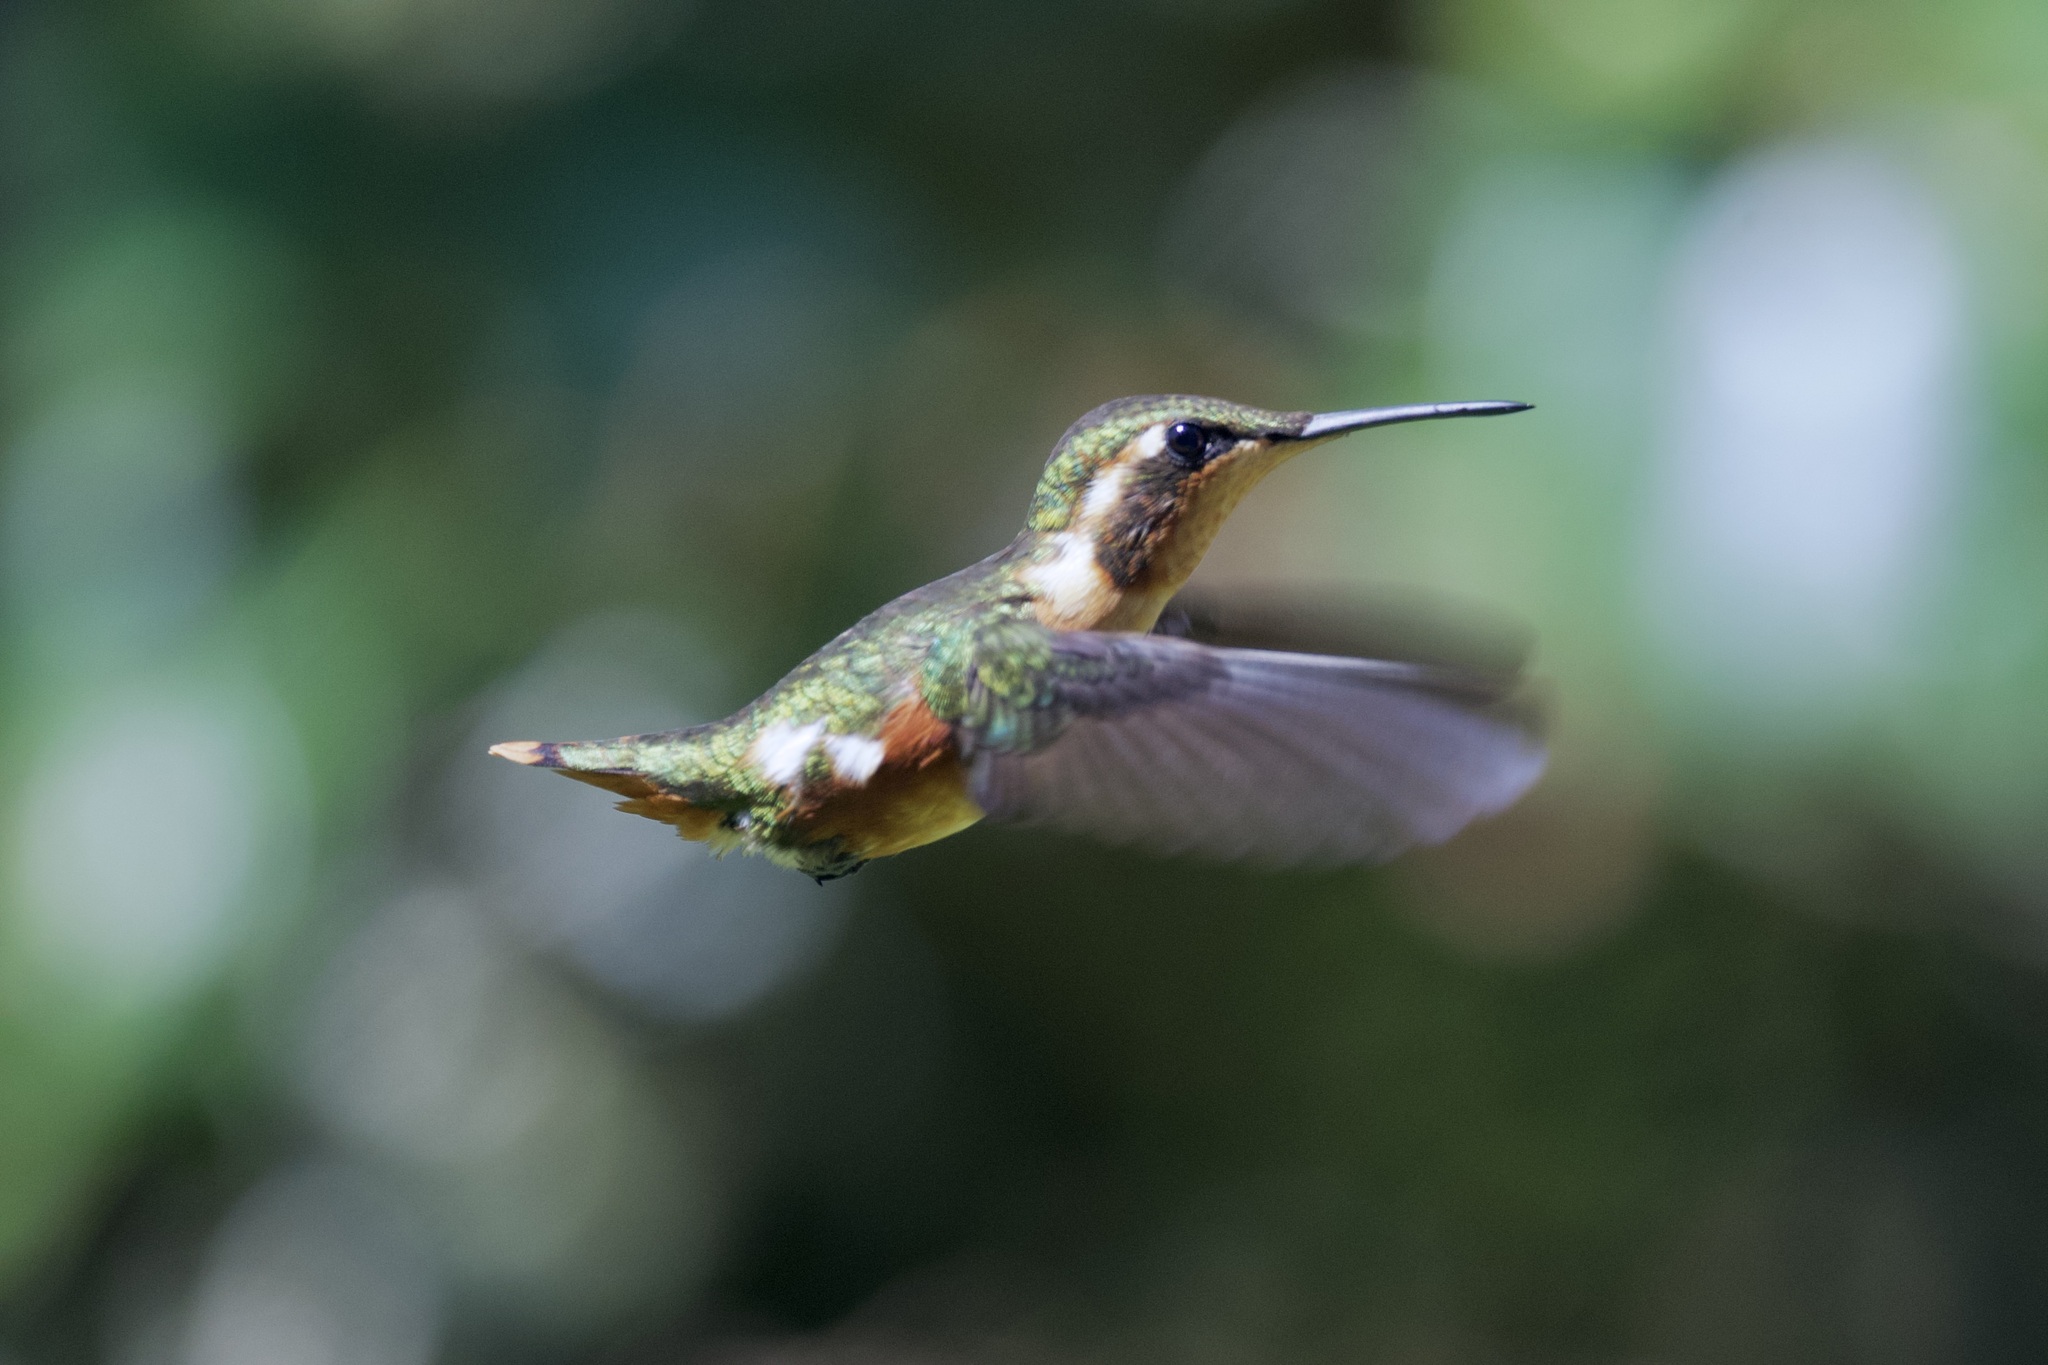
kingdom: Animalia
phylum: Chordata
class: Aves
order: Apodiformes
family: Trochilidae
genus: Chaetocercus
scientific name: Chaetocercus mulsant
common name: White-bellied woodstar
